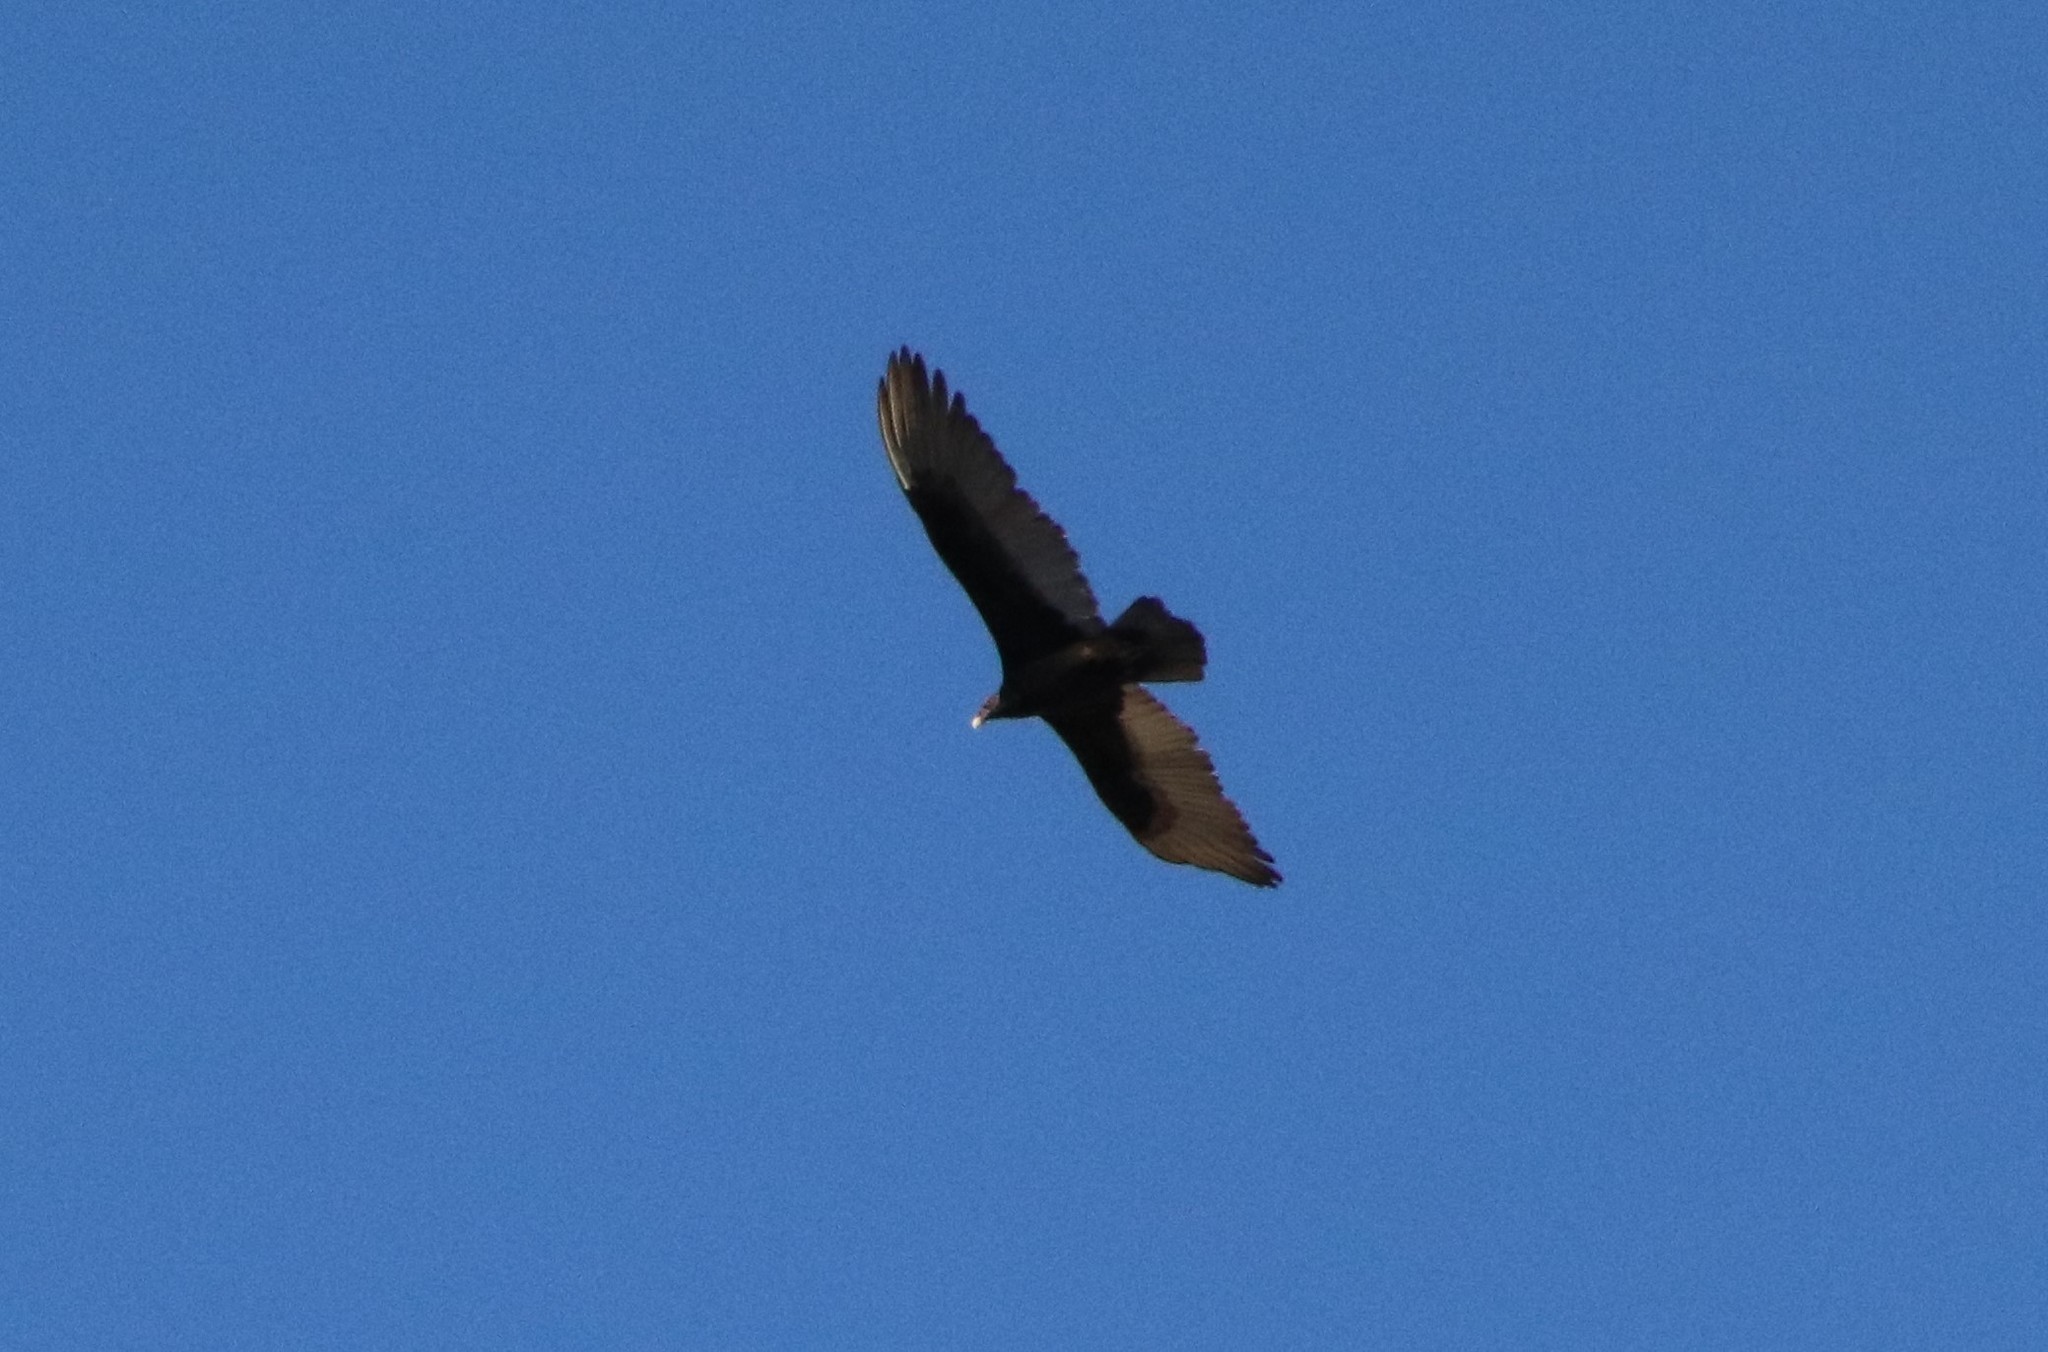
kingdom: Animalia
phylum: Chordata
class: Aves
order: Accipitriformes
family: Cathartidae
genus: Cathartes
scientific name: Cathartes aura
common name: Turkey vulture
